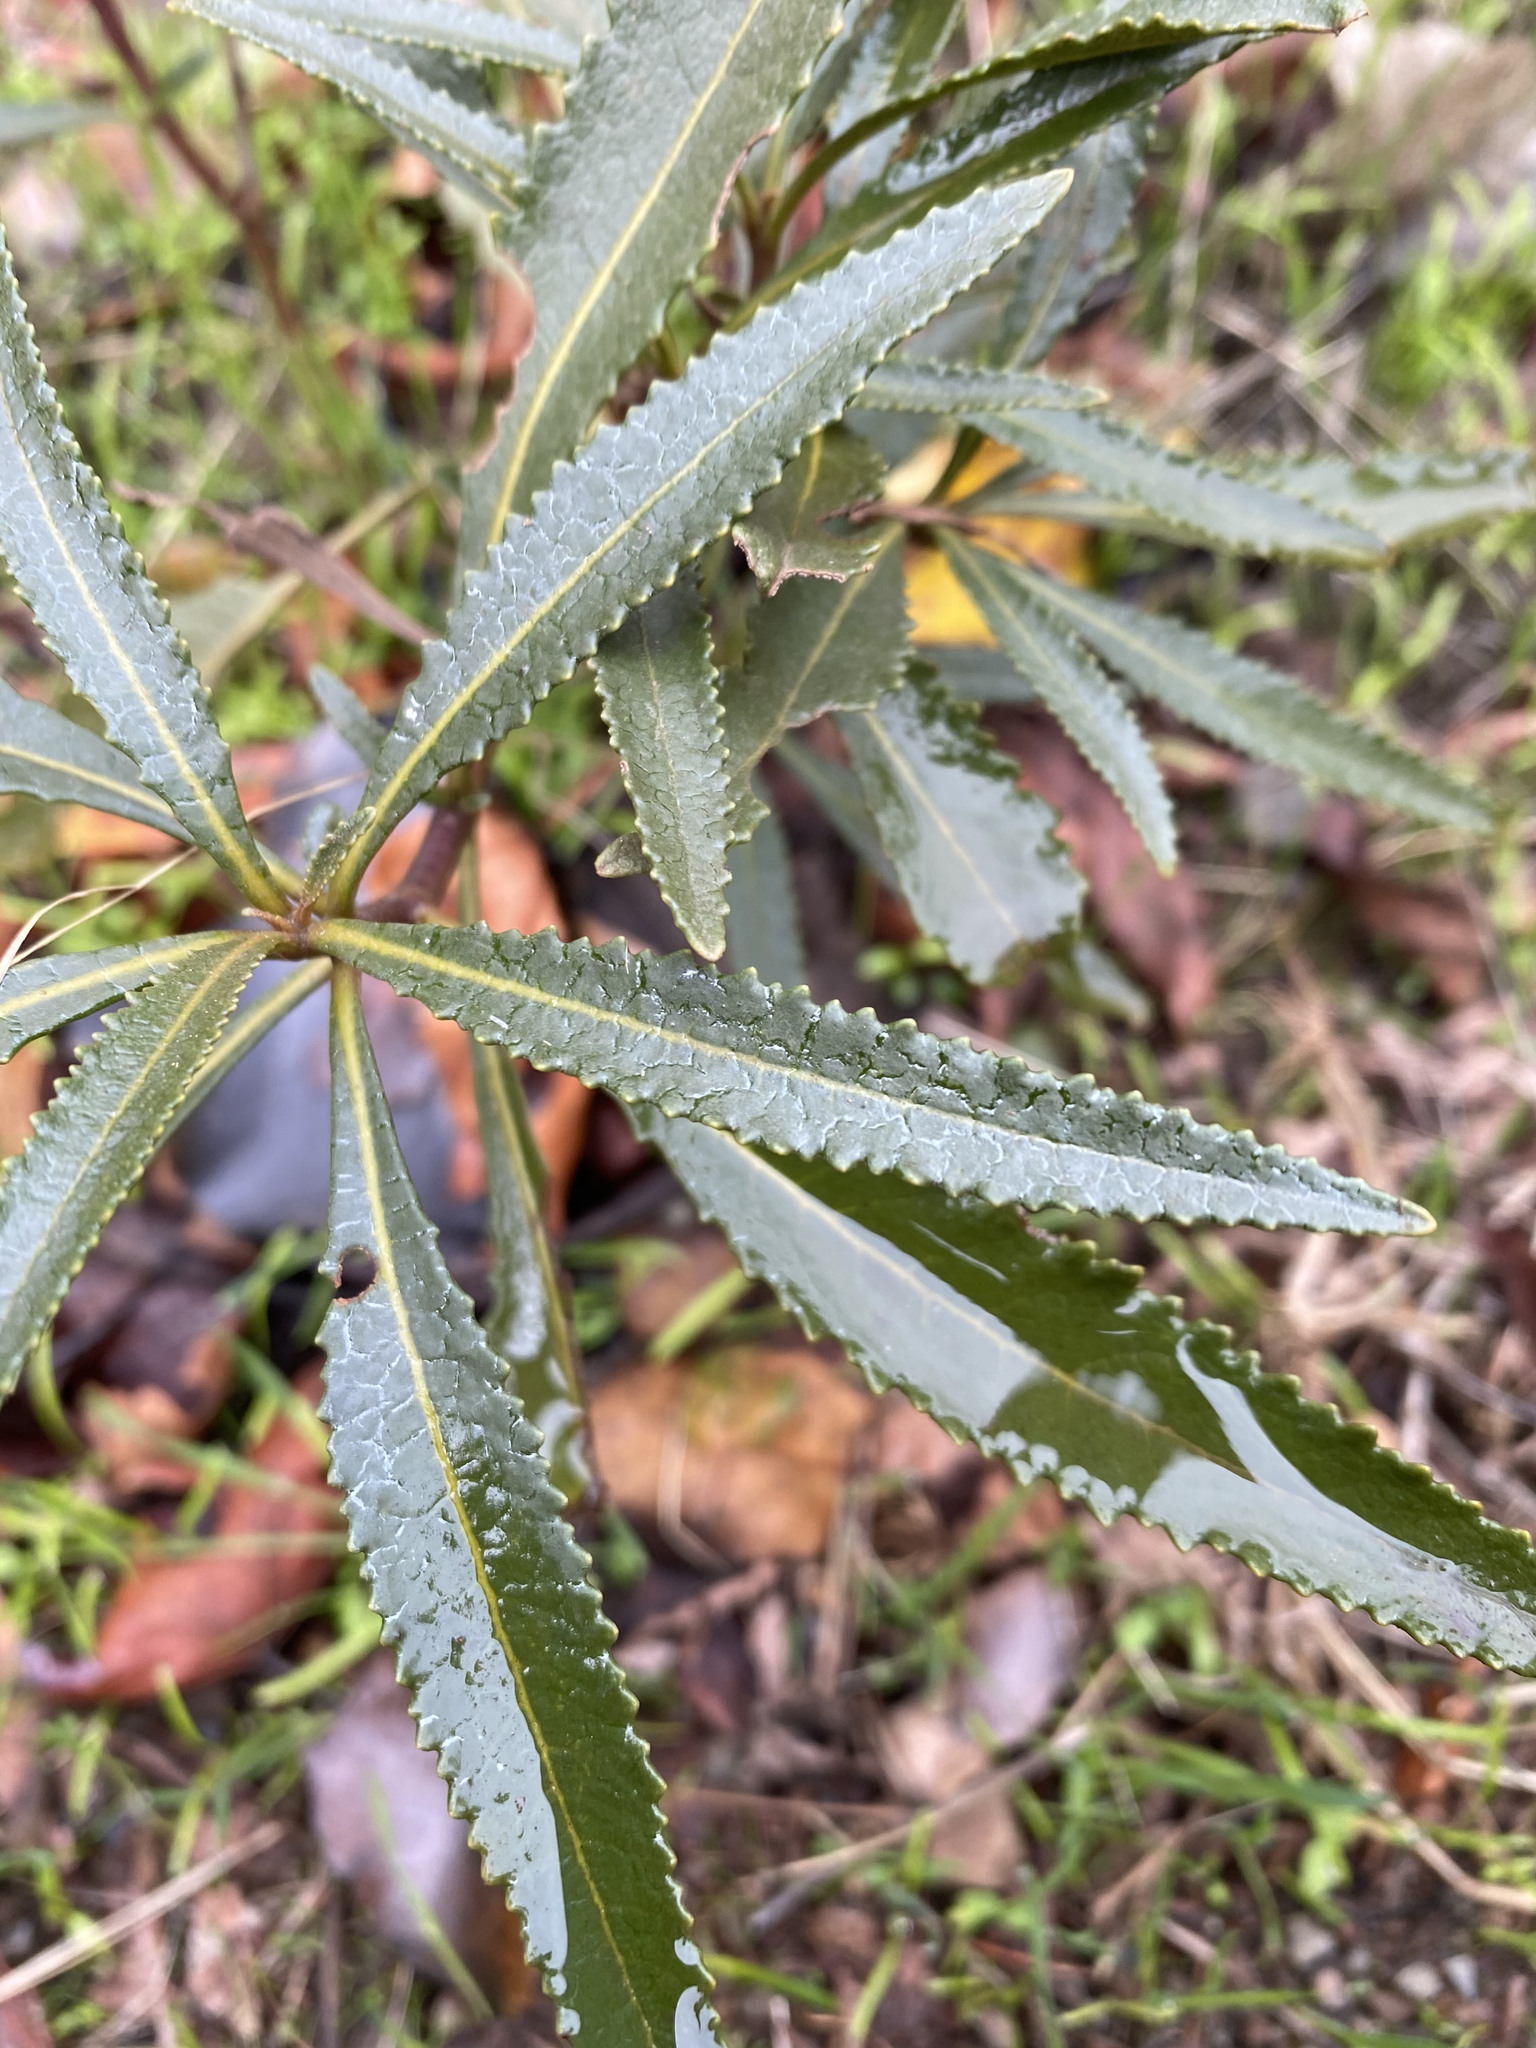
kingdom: Plantae
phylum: Tracheophyta
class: Magnoliopsida
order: Boraginales
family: Namaceae
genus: Eriodictyon
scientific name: Eriodictyon californicum
